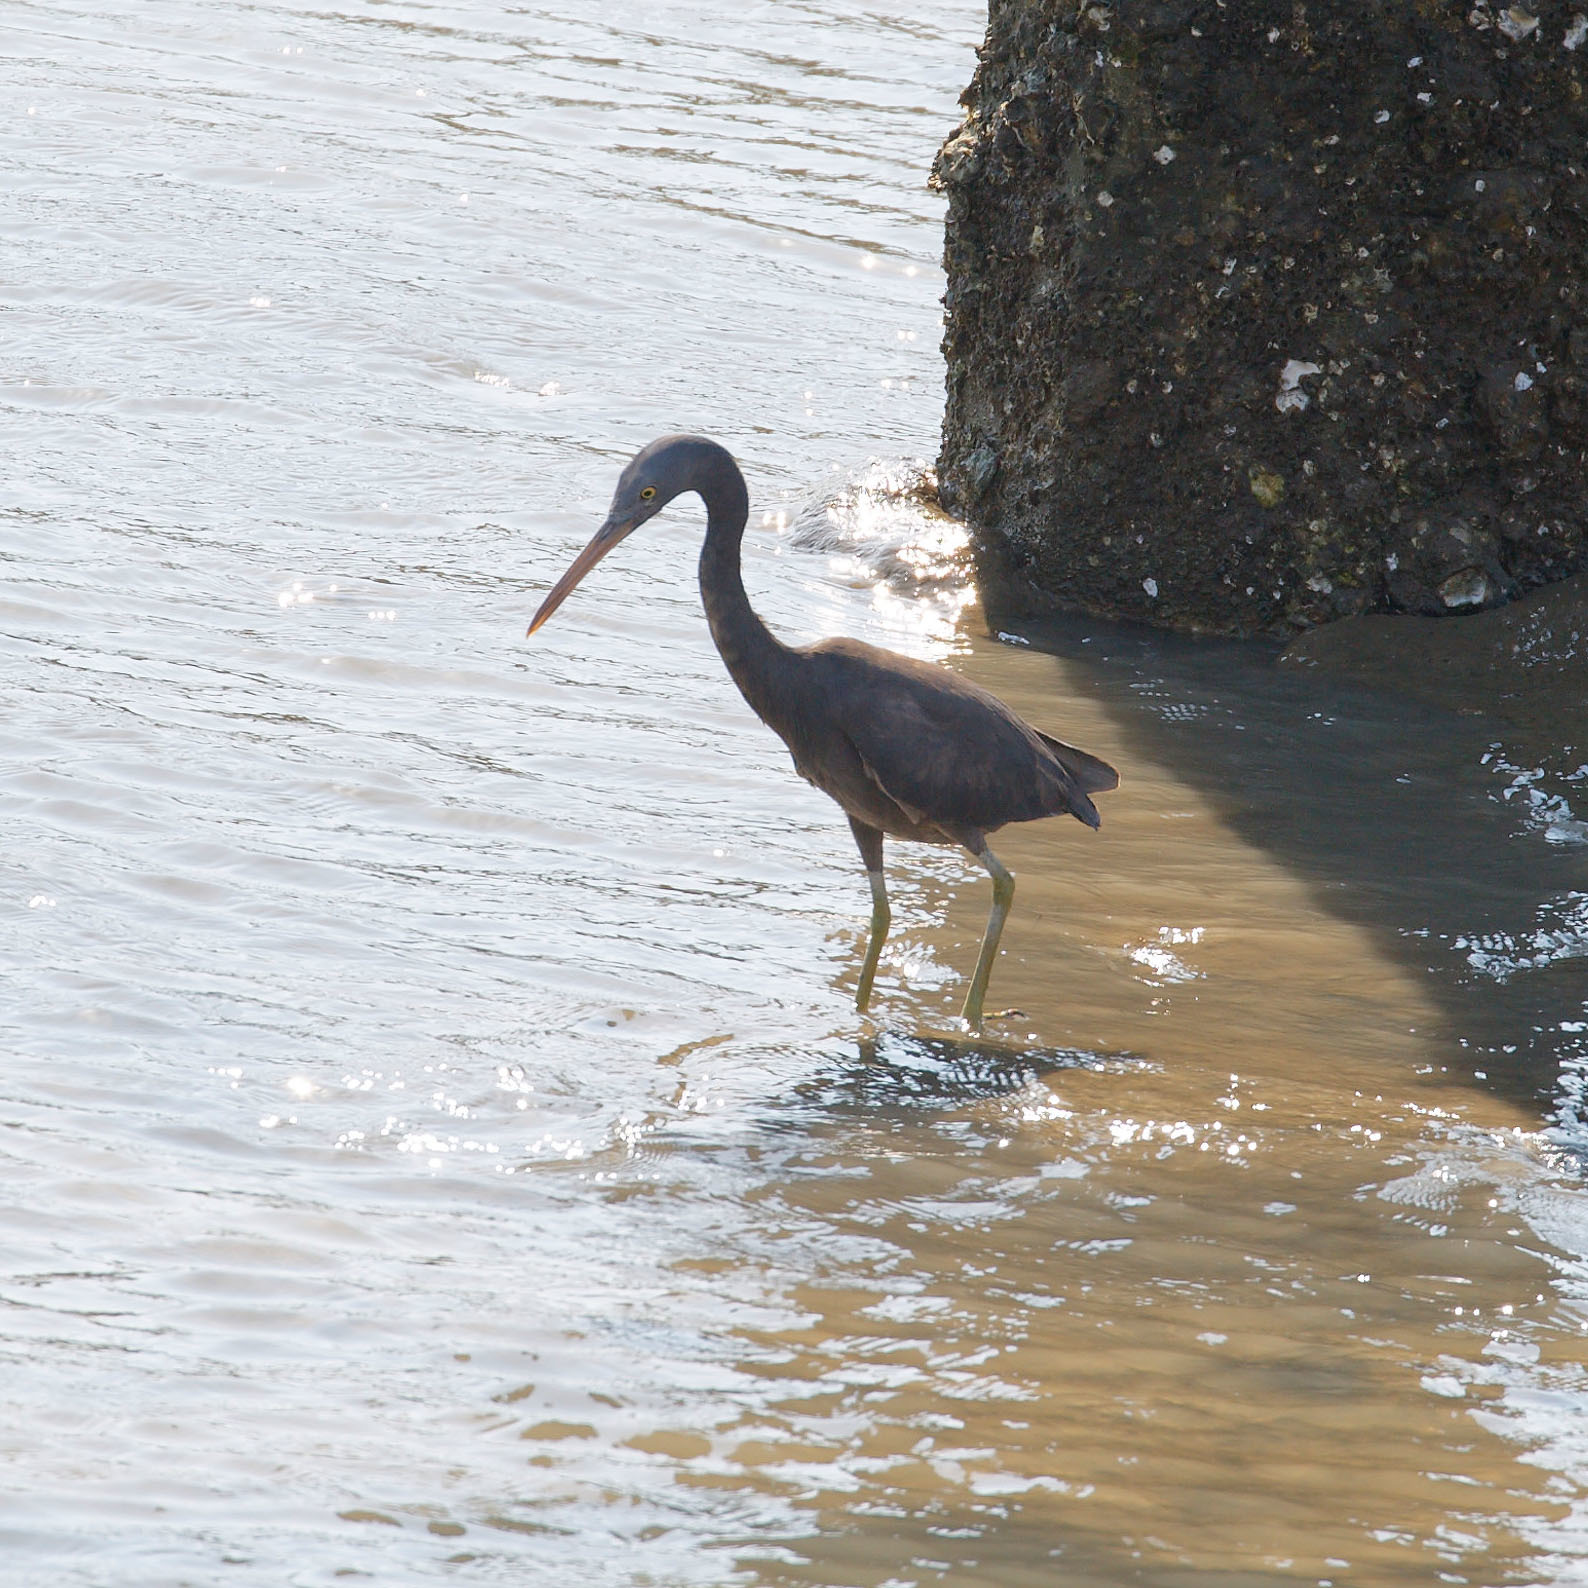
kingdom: Animalia
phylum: Chordata
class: Aves
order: Pelecaniformes
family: Ardeidae
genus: Egretta
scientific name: Egretta sacra
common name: Pacific reef heron
